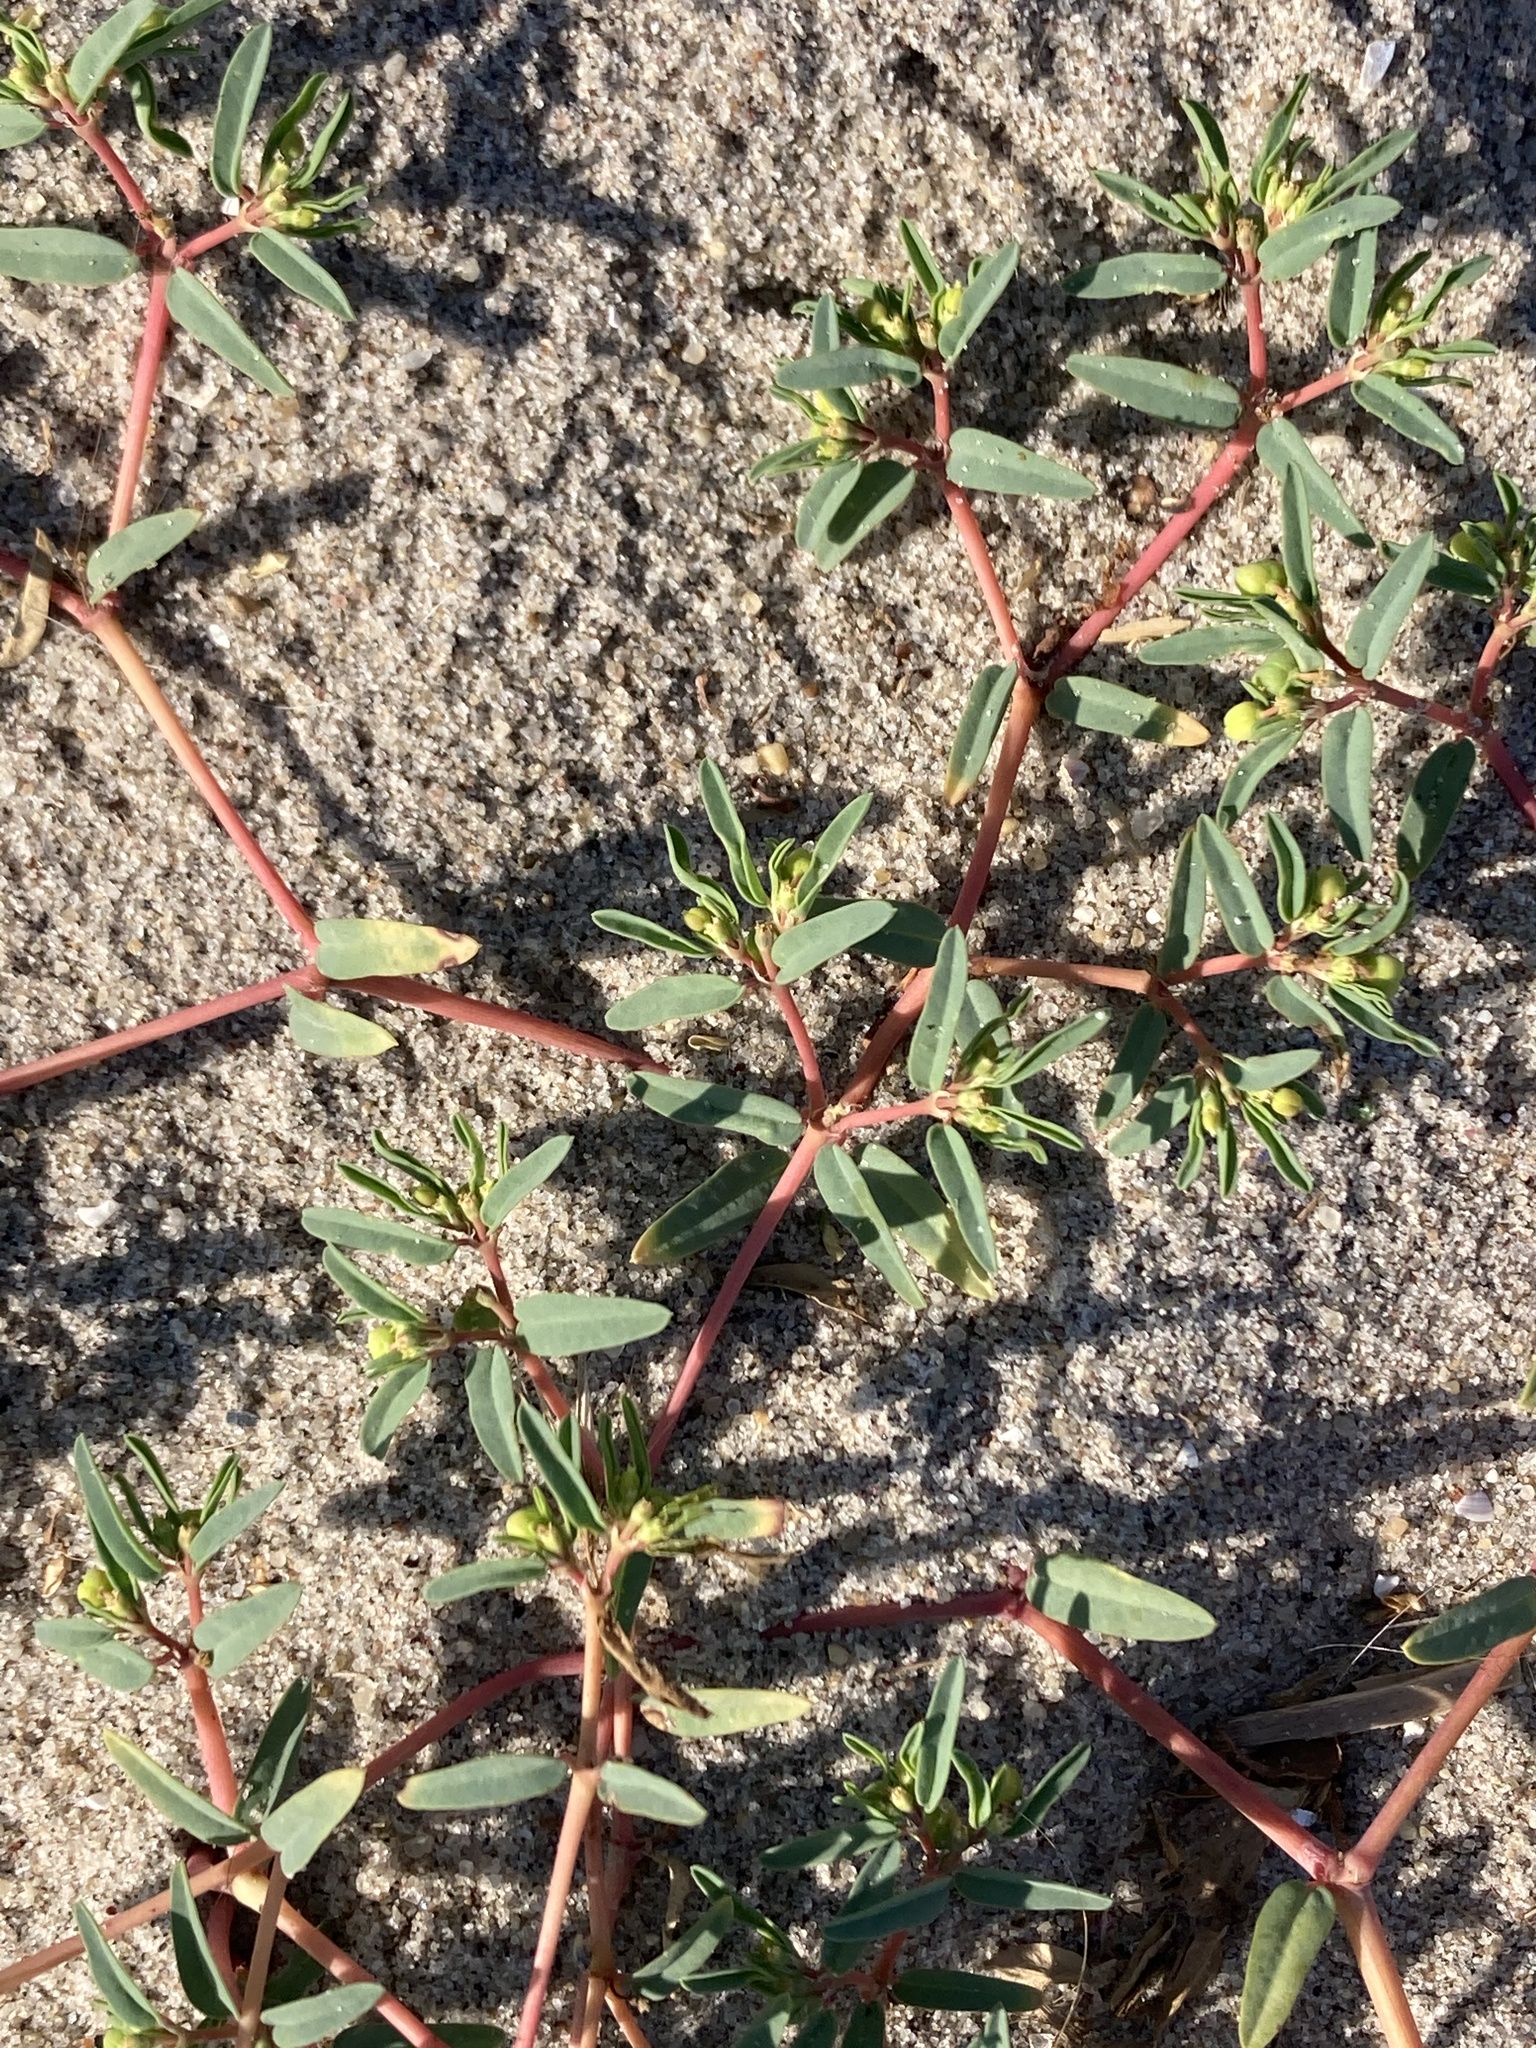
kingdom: Plantae
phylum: Tracheophyta
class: Magnoliopsida
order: Malpighiales
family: Euphorbiaceae
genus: Euphorbia
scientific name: Euphorbia polygonifolia
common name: Knotweed spurge
